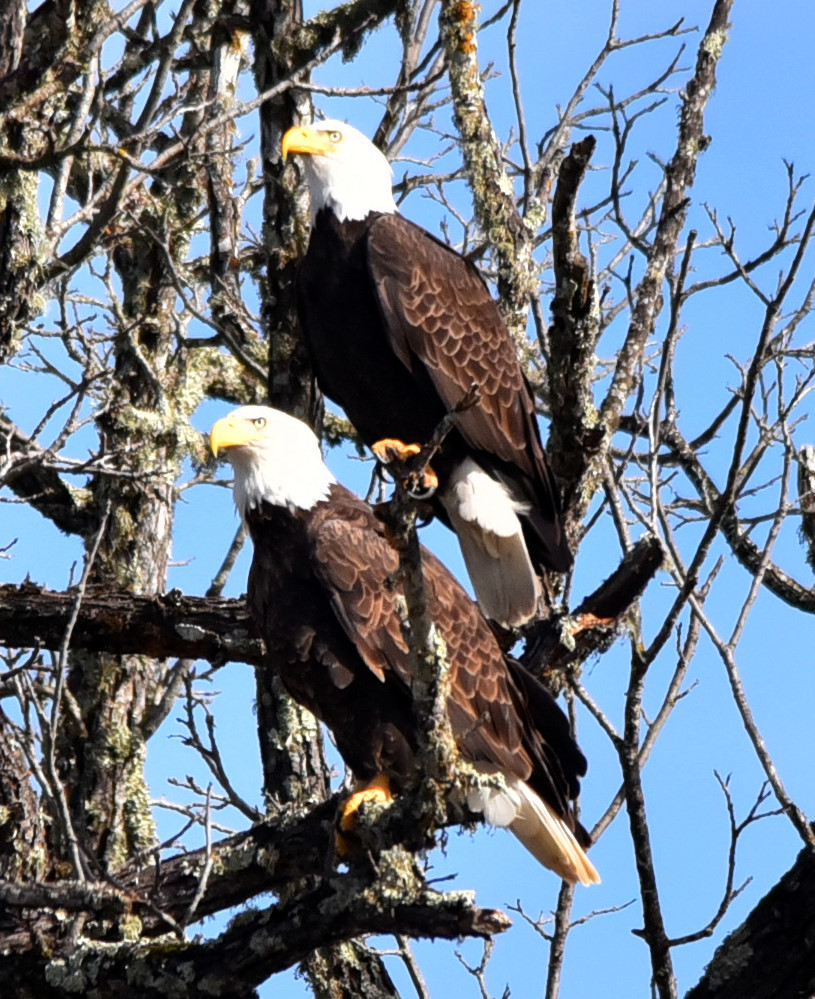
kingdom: Animalia
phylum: Chordata
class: Aves
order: Accipitriformes
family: Accipitridae
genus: Haliaeetus
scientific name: Haliaeetus leucocephalus
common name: Bald eagle
